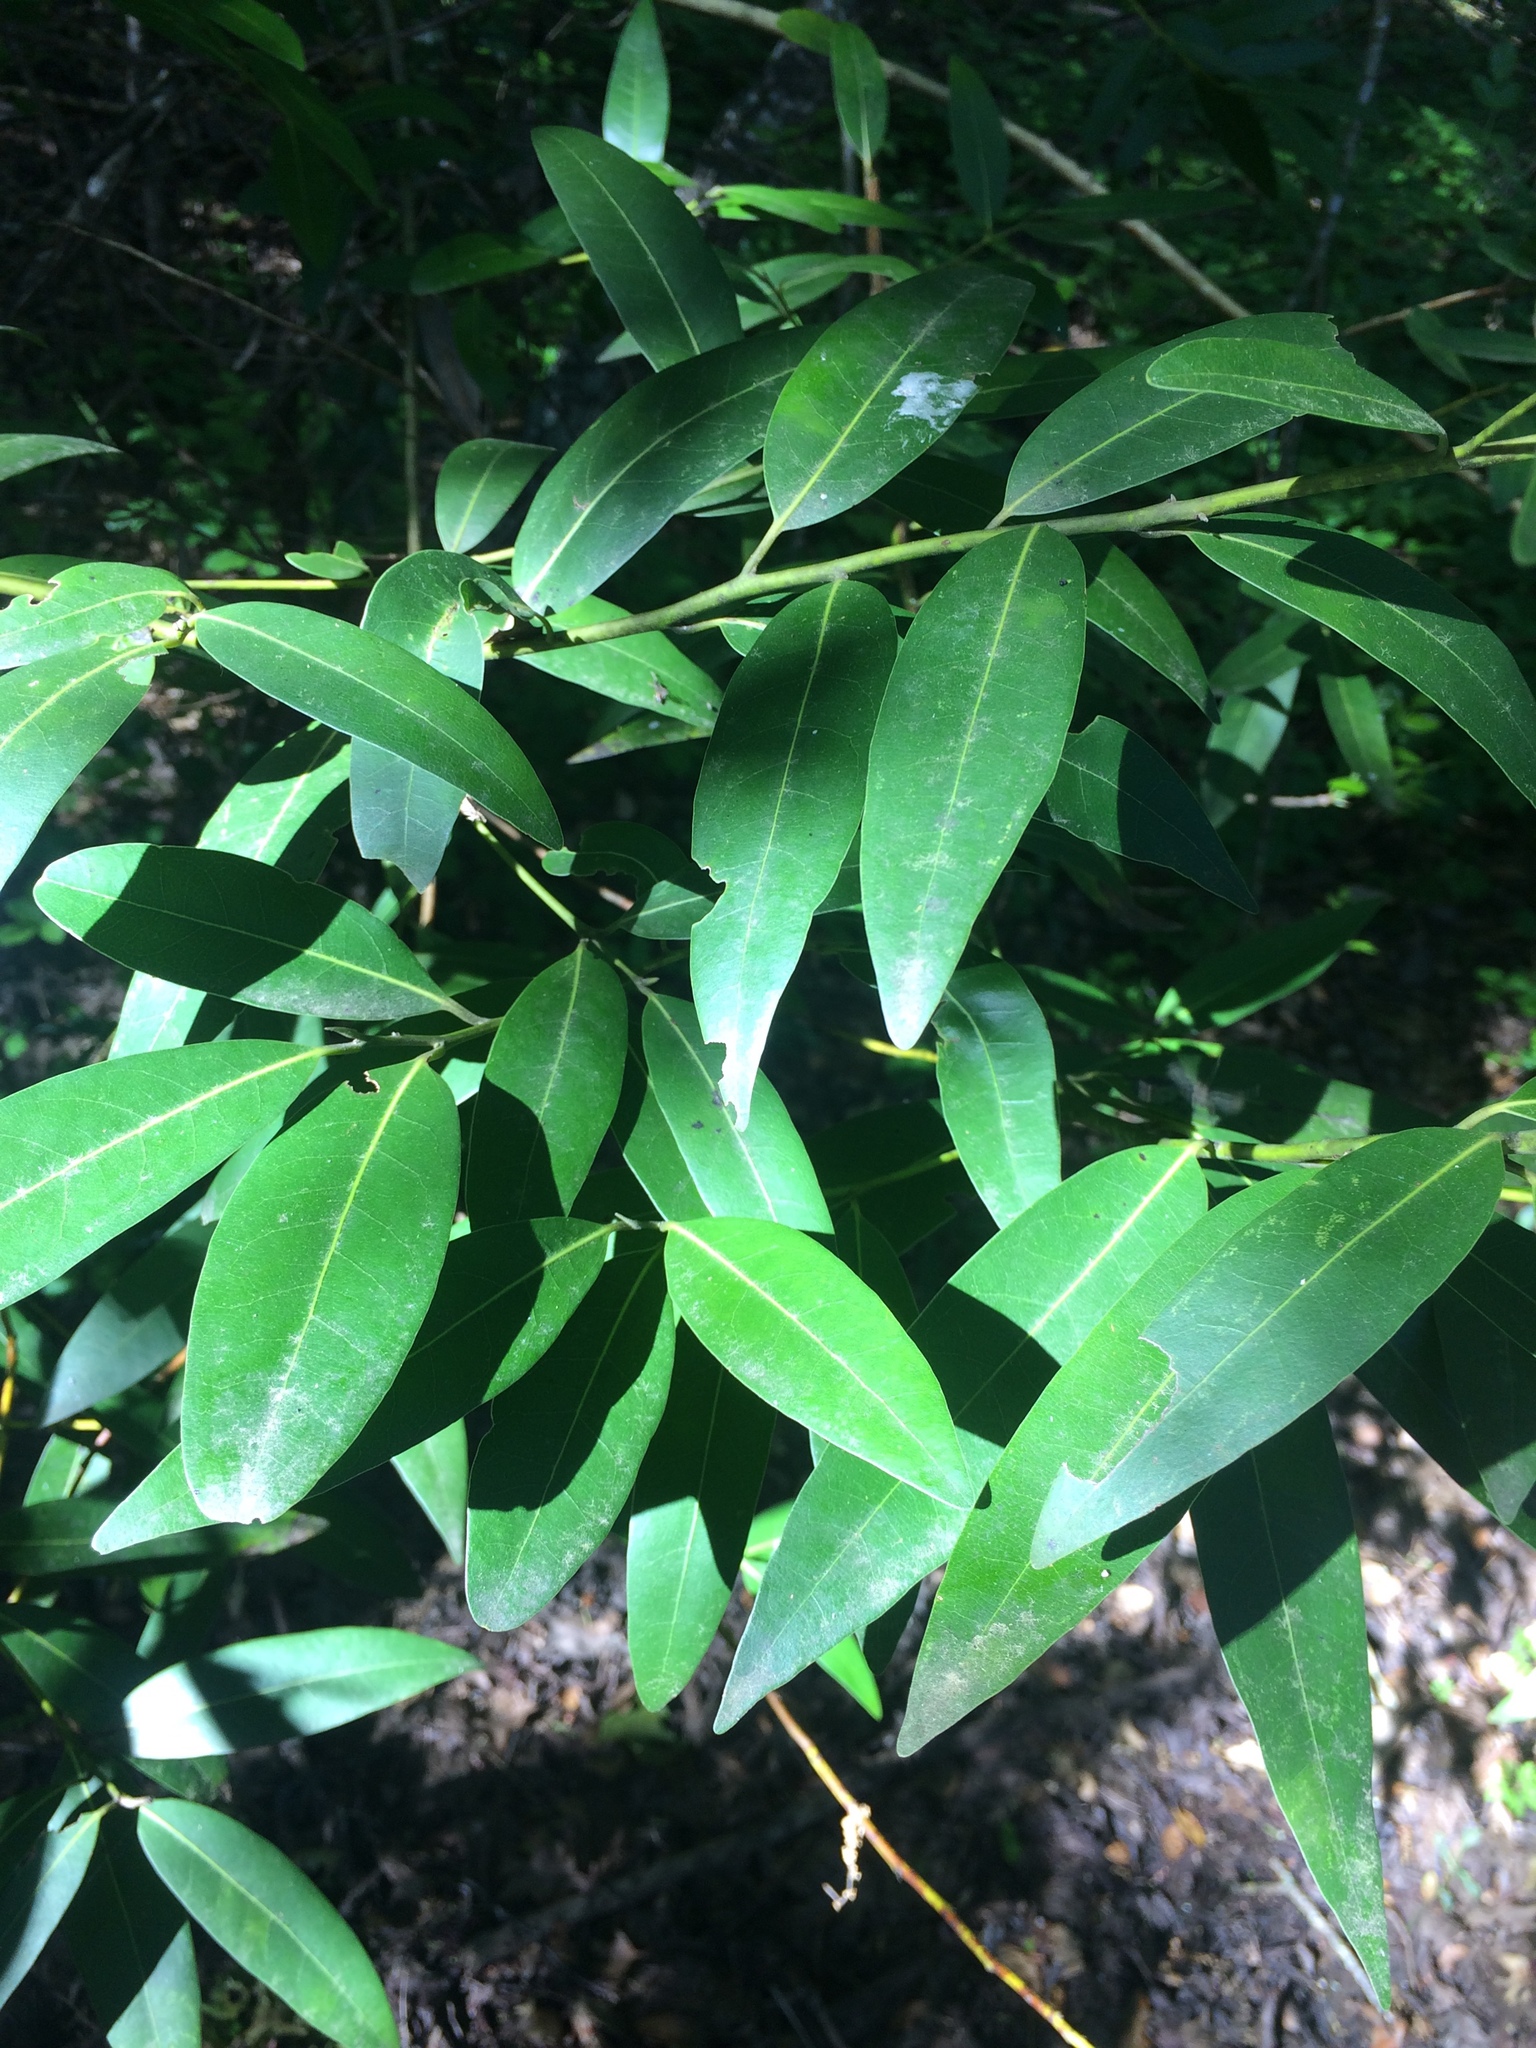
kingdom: Plantae
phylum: Tracheophyta
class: Magnoliopsida
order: Laurales
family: Lauraceae
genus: Umbellularia
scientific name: Umbellularia californica
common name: California bay
